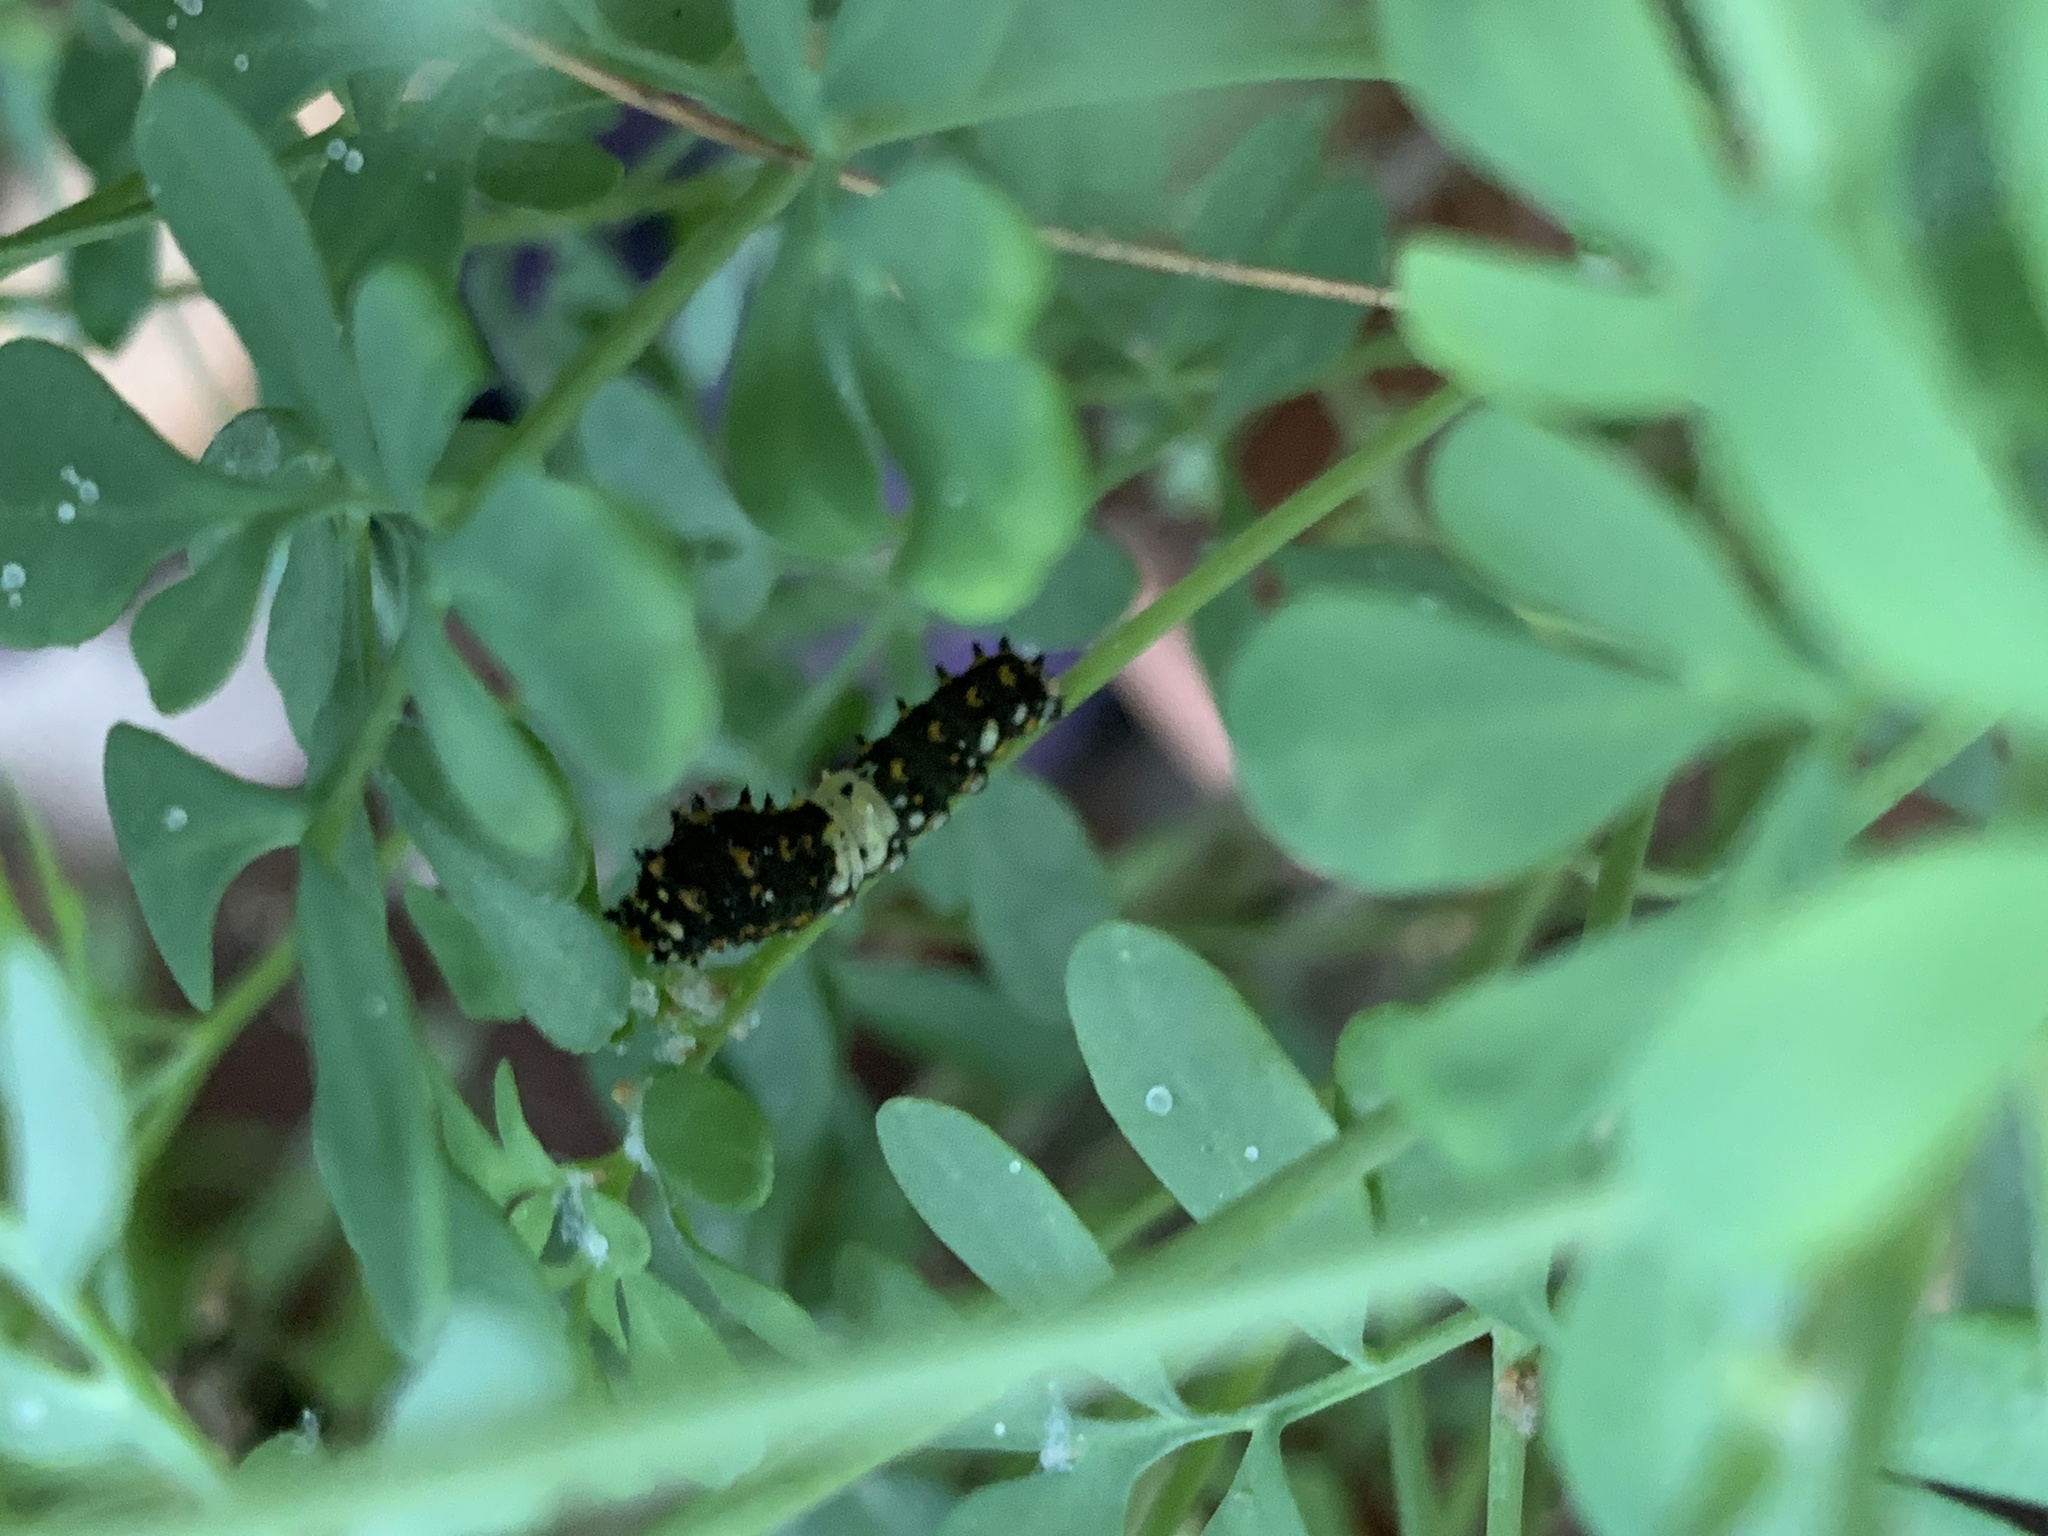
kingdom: Animalia
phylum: Arthropoda
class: Insecta
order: Lepidoptera
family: Papilionidae
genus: Papilio
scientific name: Papilio polyxenes
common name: Black swallowtail
